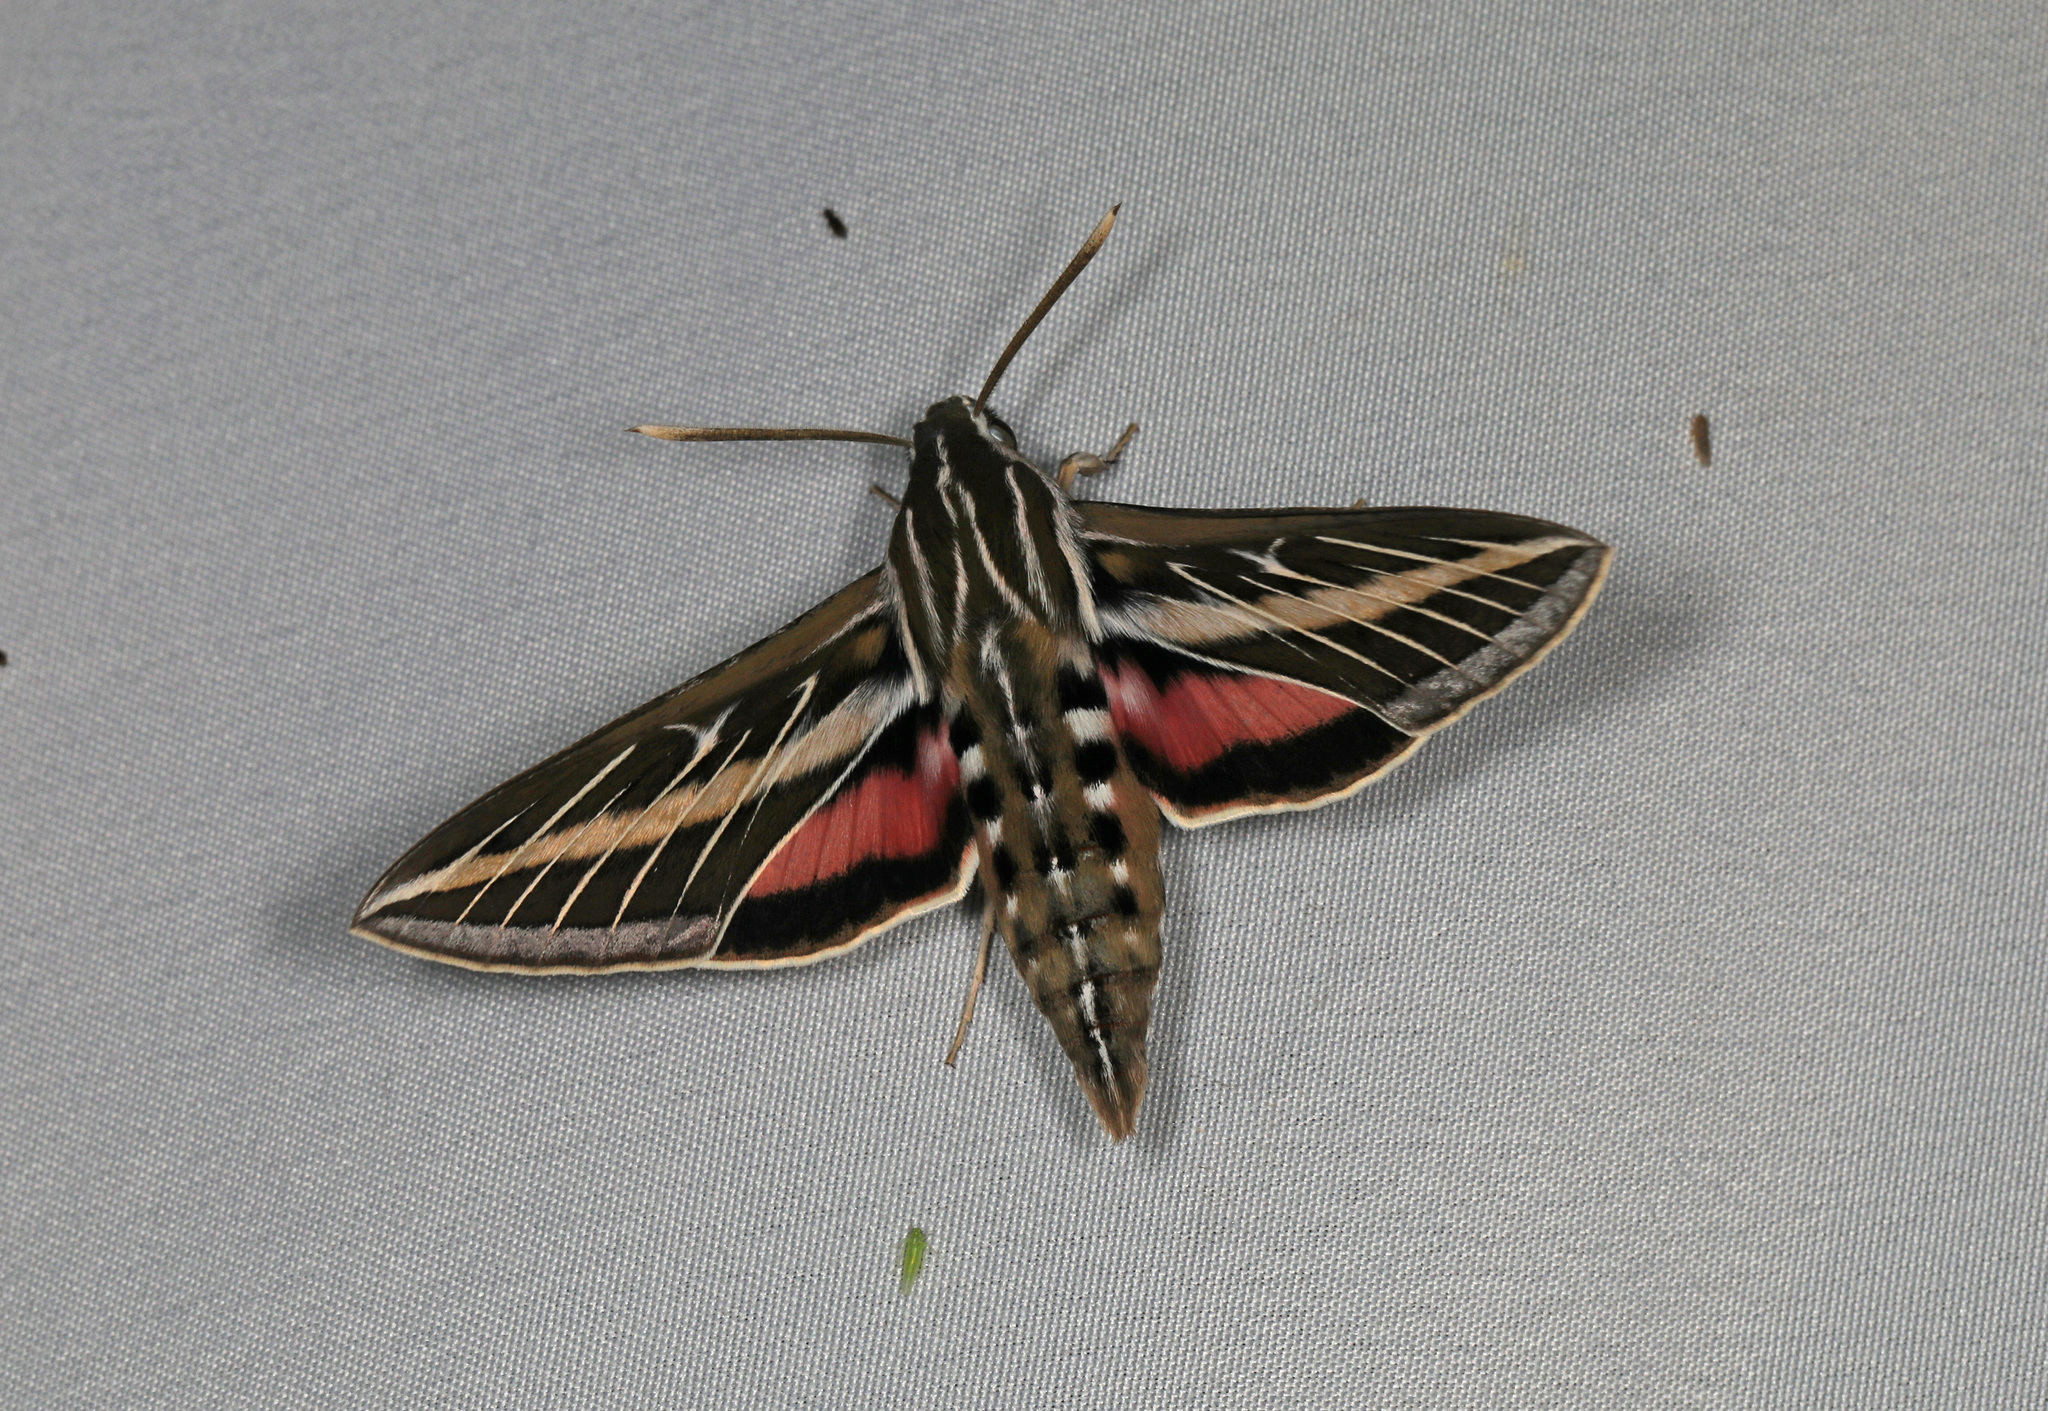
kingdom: Animalia
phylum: Arthropoda
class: Insecta
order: Lepidoptera
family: Sphingidae
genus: Hyles
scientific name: Hyles lineata
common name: White-lined sphinx
